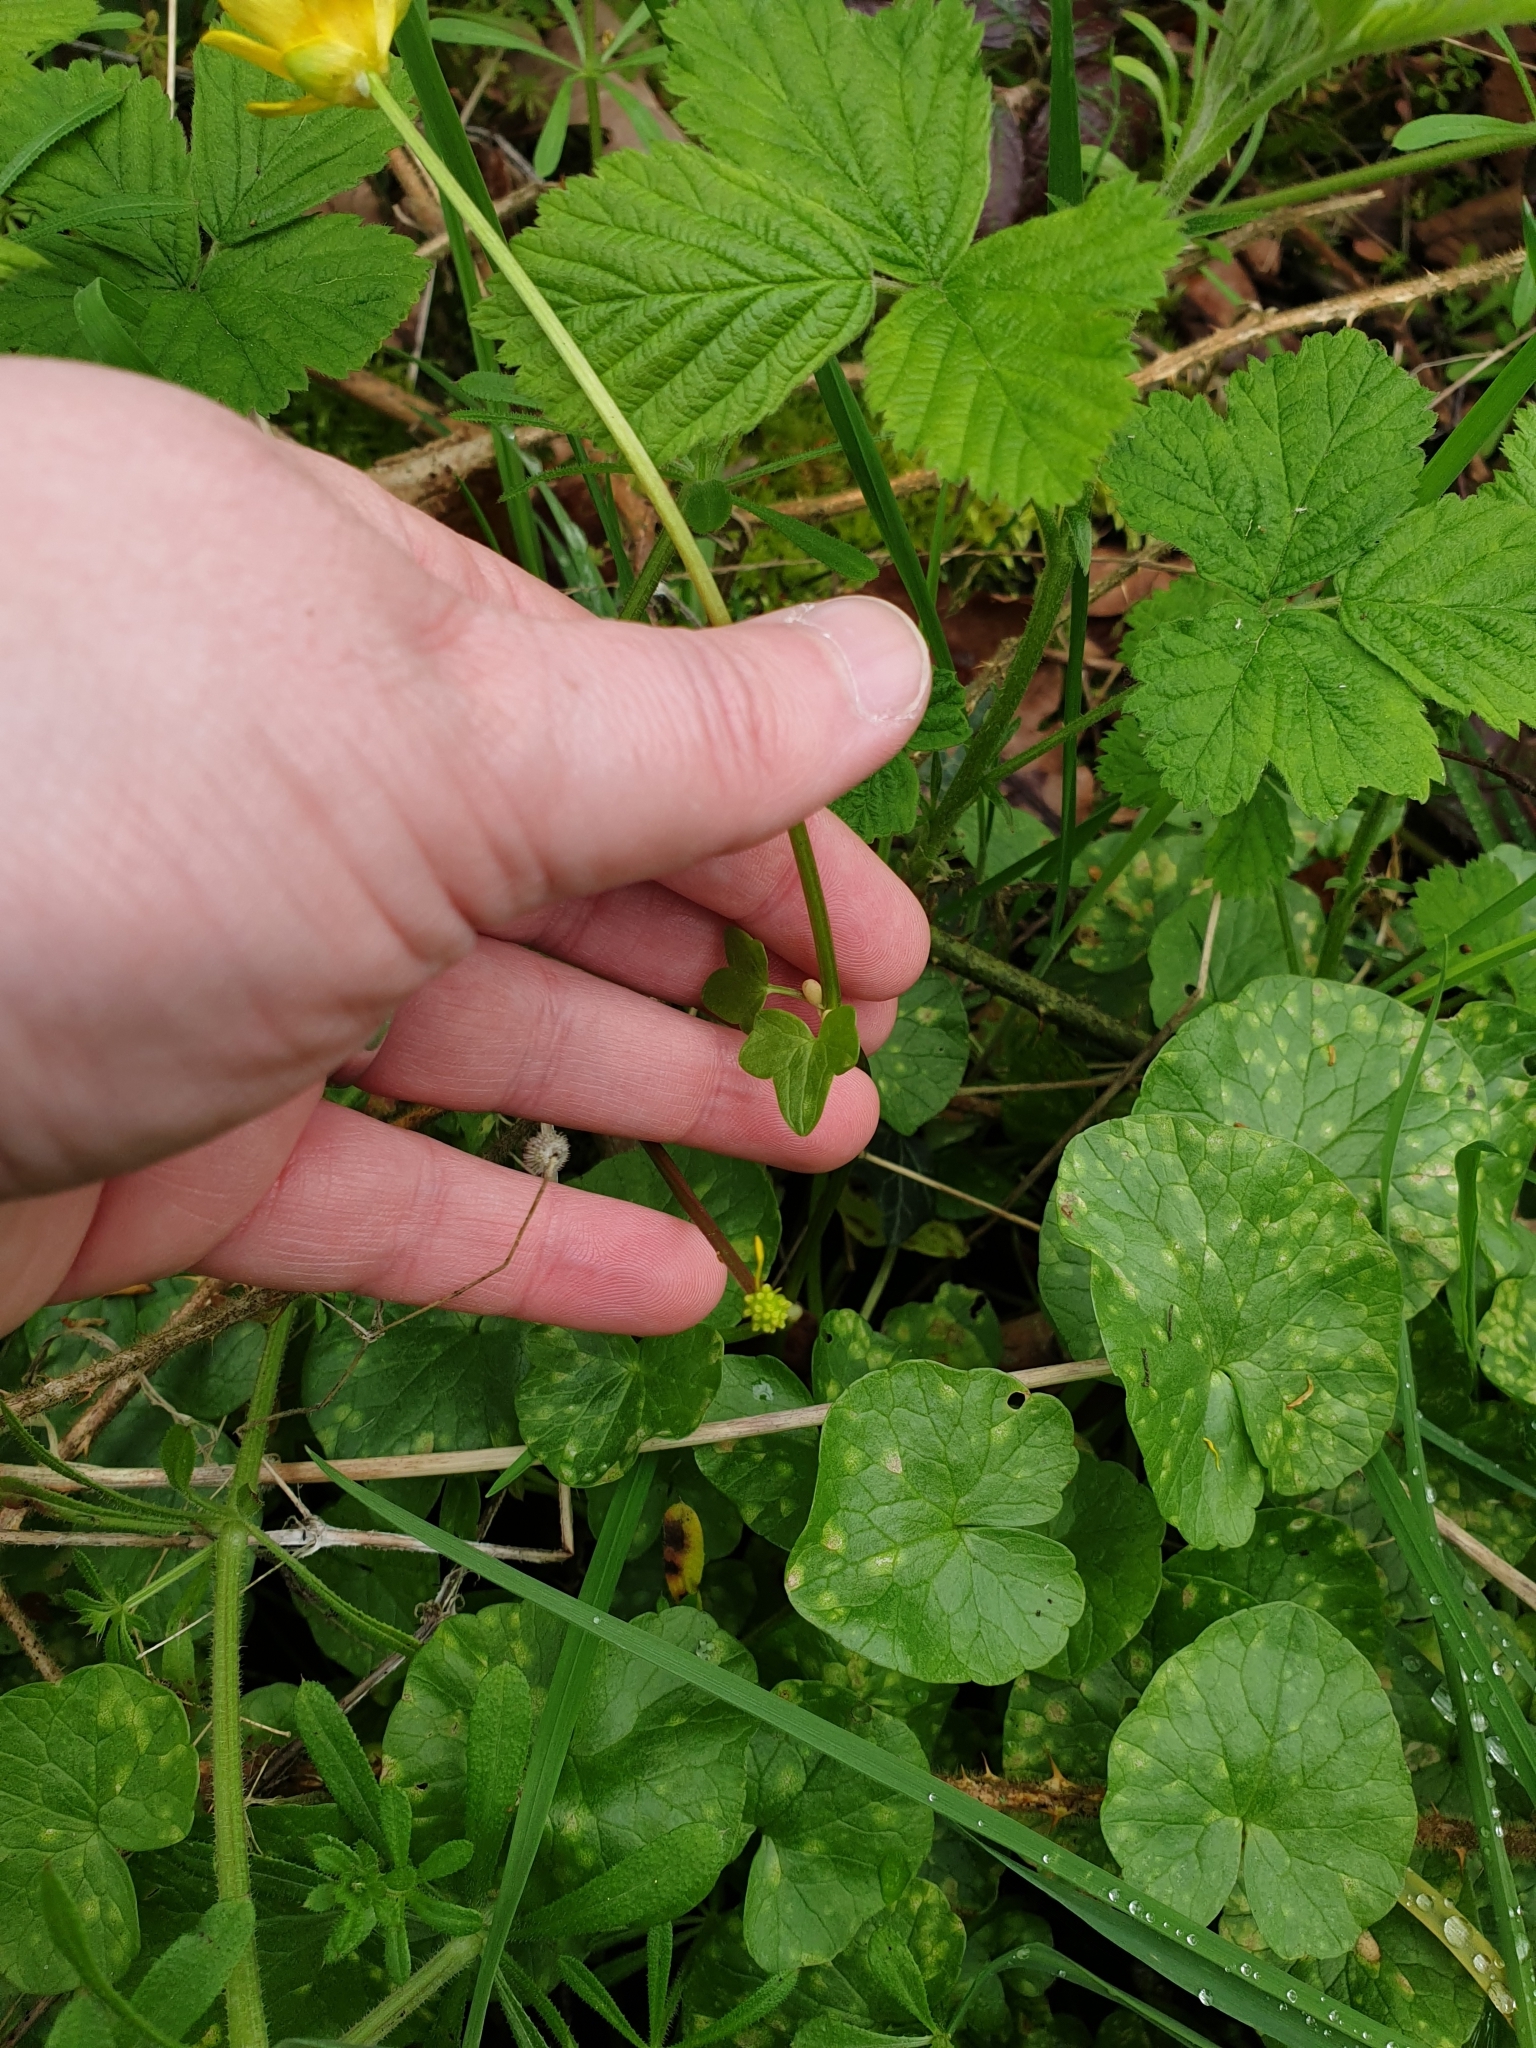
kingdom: Plantae
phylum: Tracheophyta
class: Magnoliopsida
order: Ranunculales
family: Ranunculaceae
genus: Ficaria
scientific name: Ficaria verna
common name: Lesser celandine
